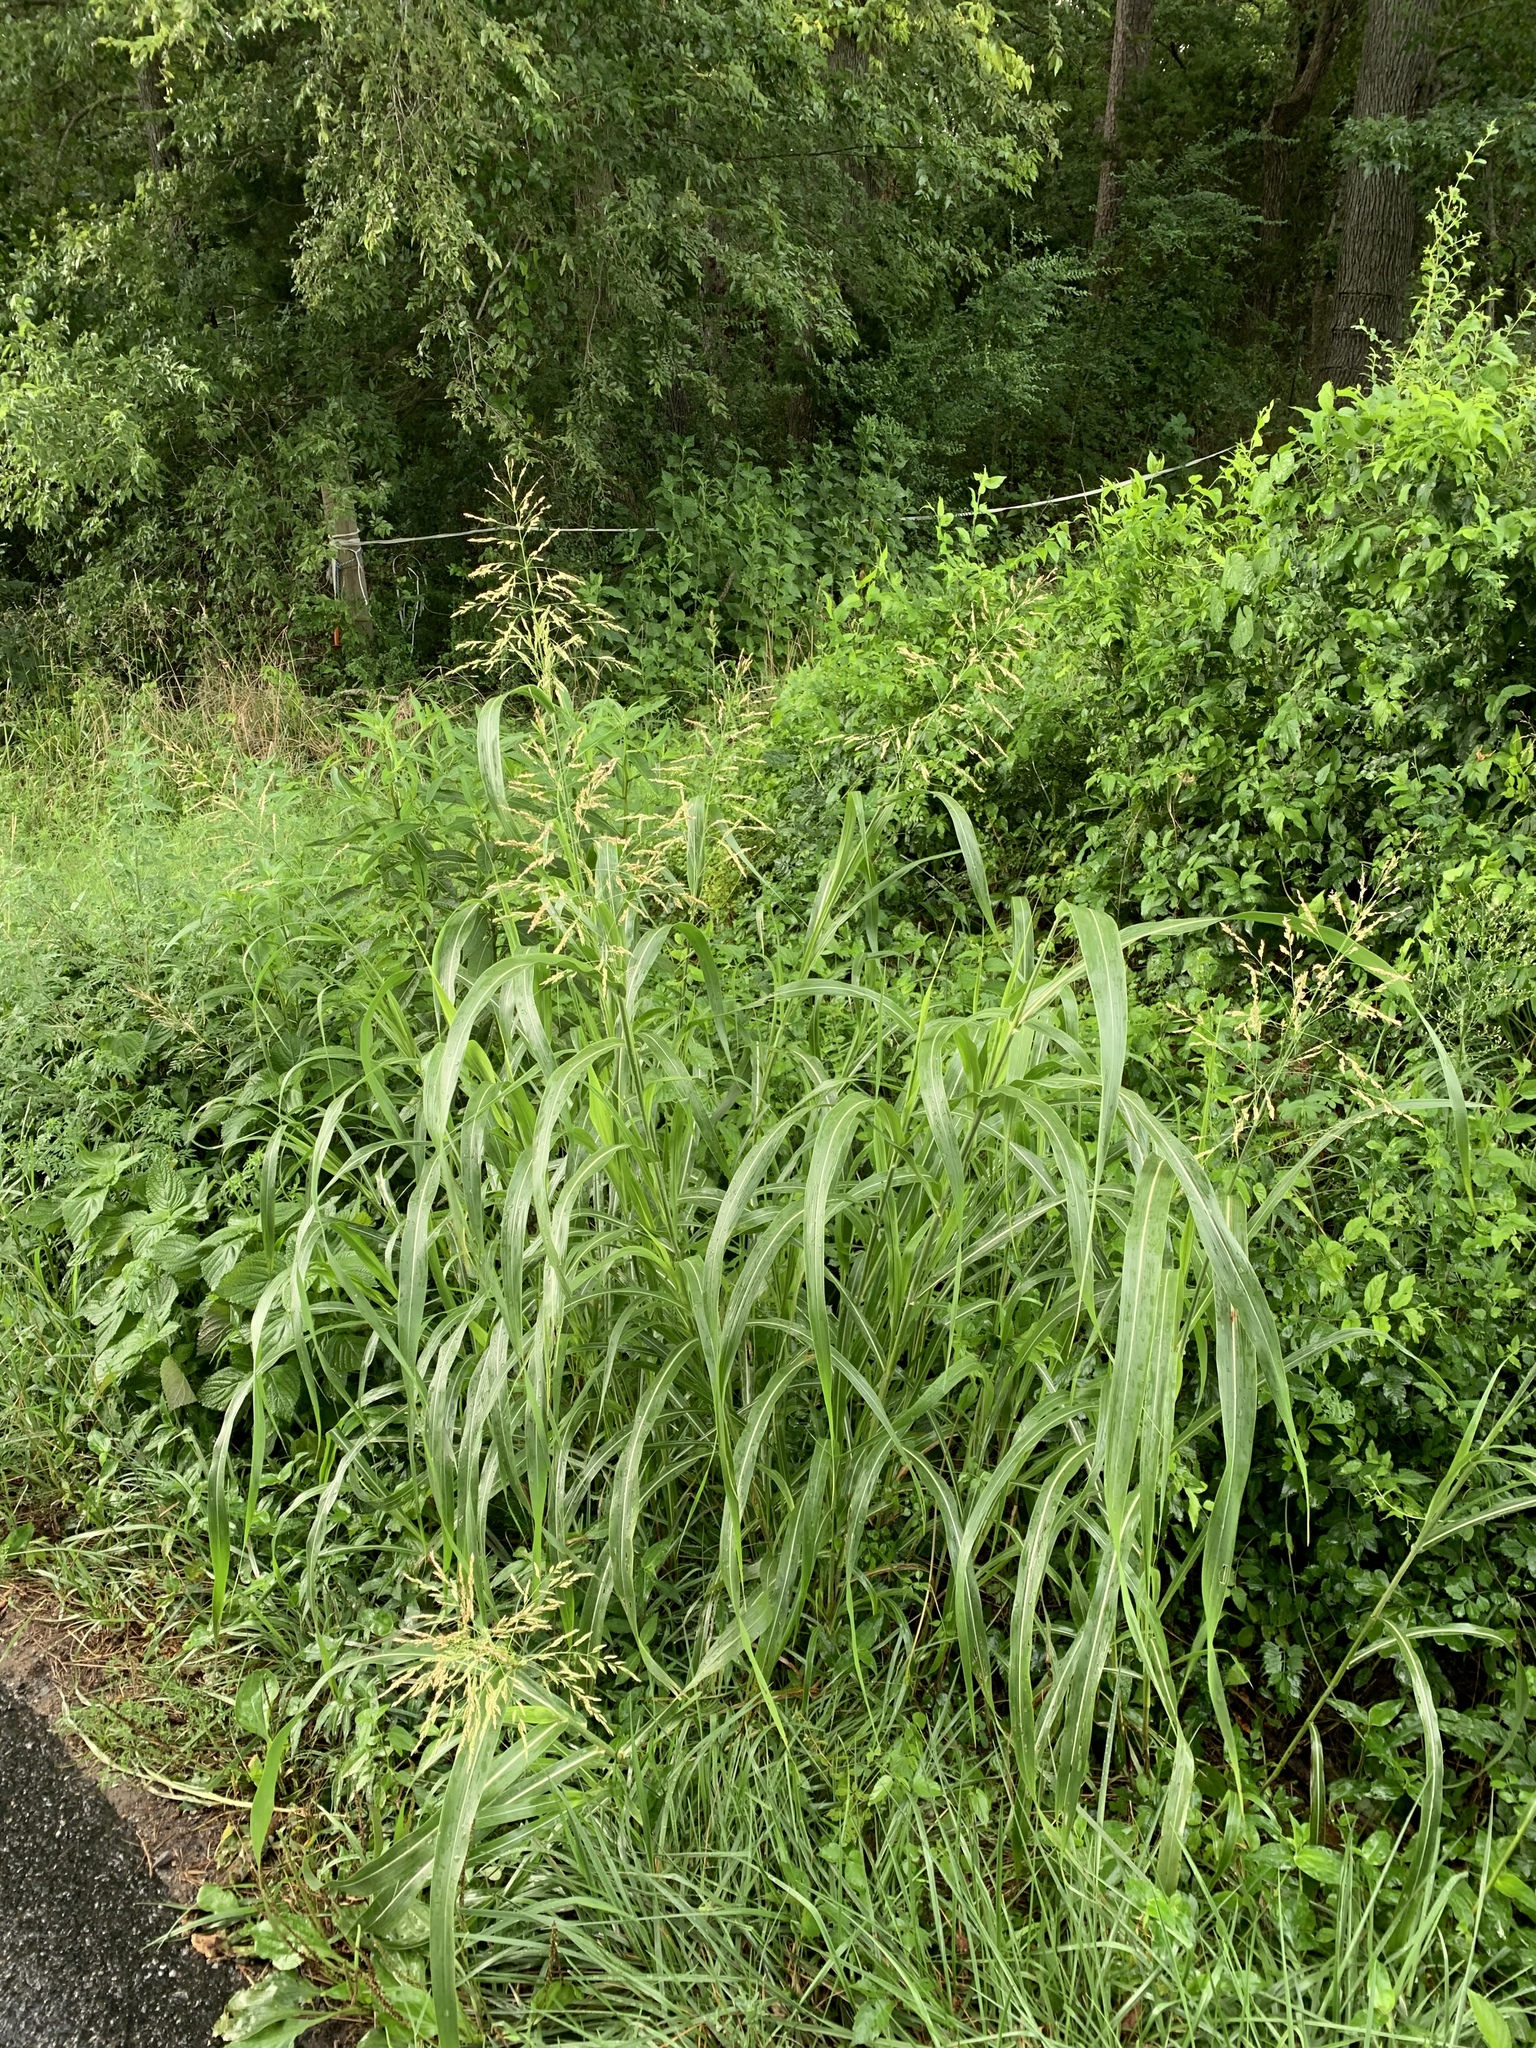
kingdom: Plantae
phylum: Tracheophyta
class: Liliopsida
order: Poales
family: Poaceae
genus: Sorghum
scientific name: Sorghum halepense
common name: Johnson-grass
